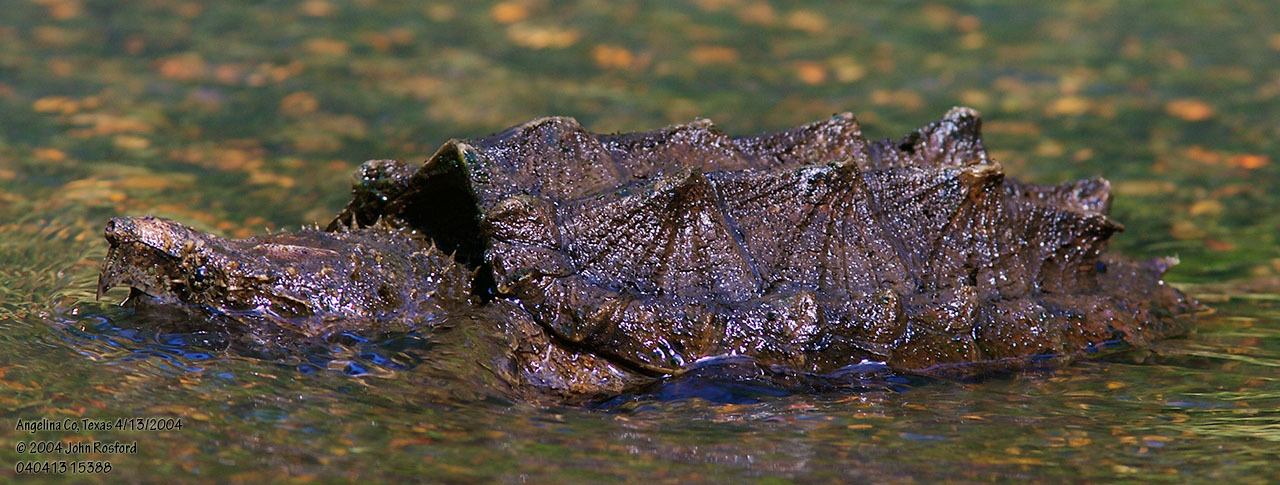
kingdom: Animalia
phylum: Chordata
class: Testudines
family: Chelydridae
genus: Macrochelys
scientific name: Macrochelys temminckii
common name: Alligator snapping turtle
